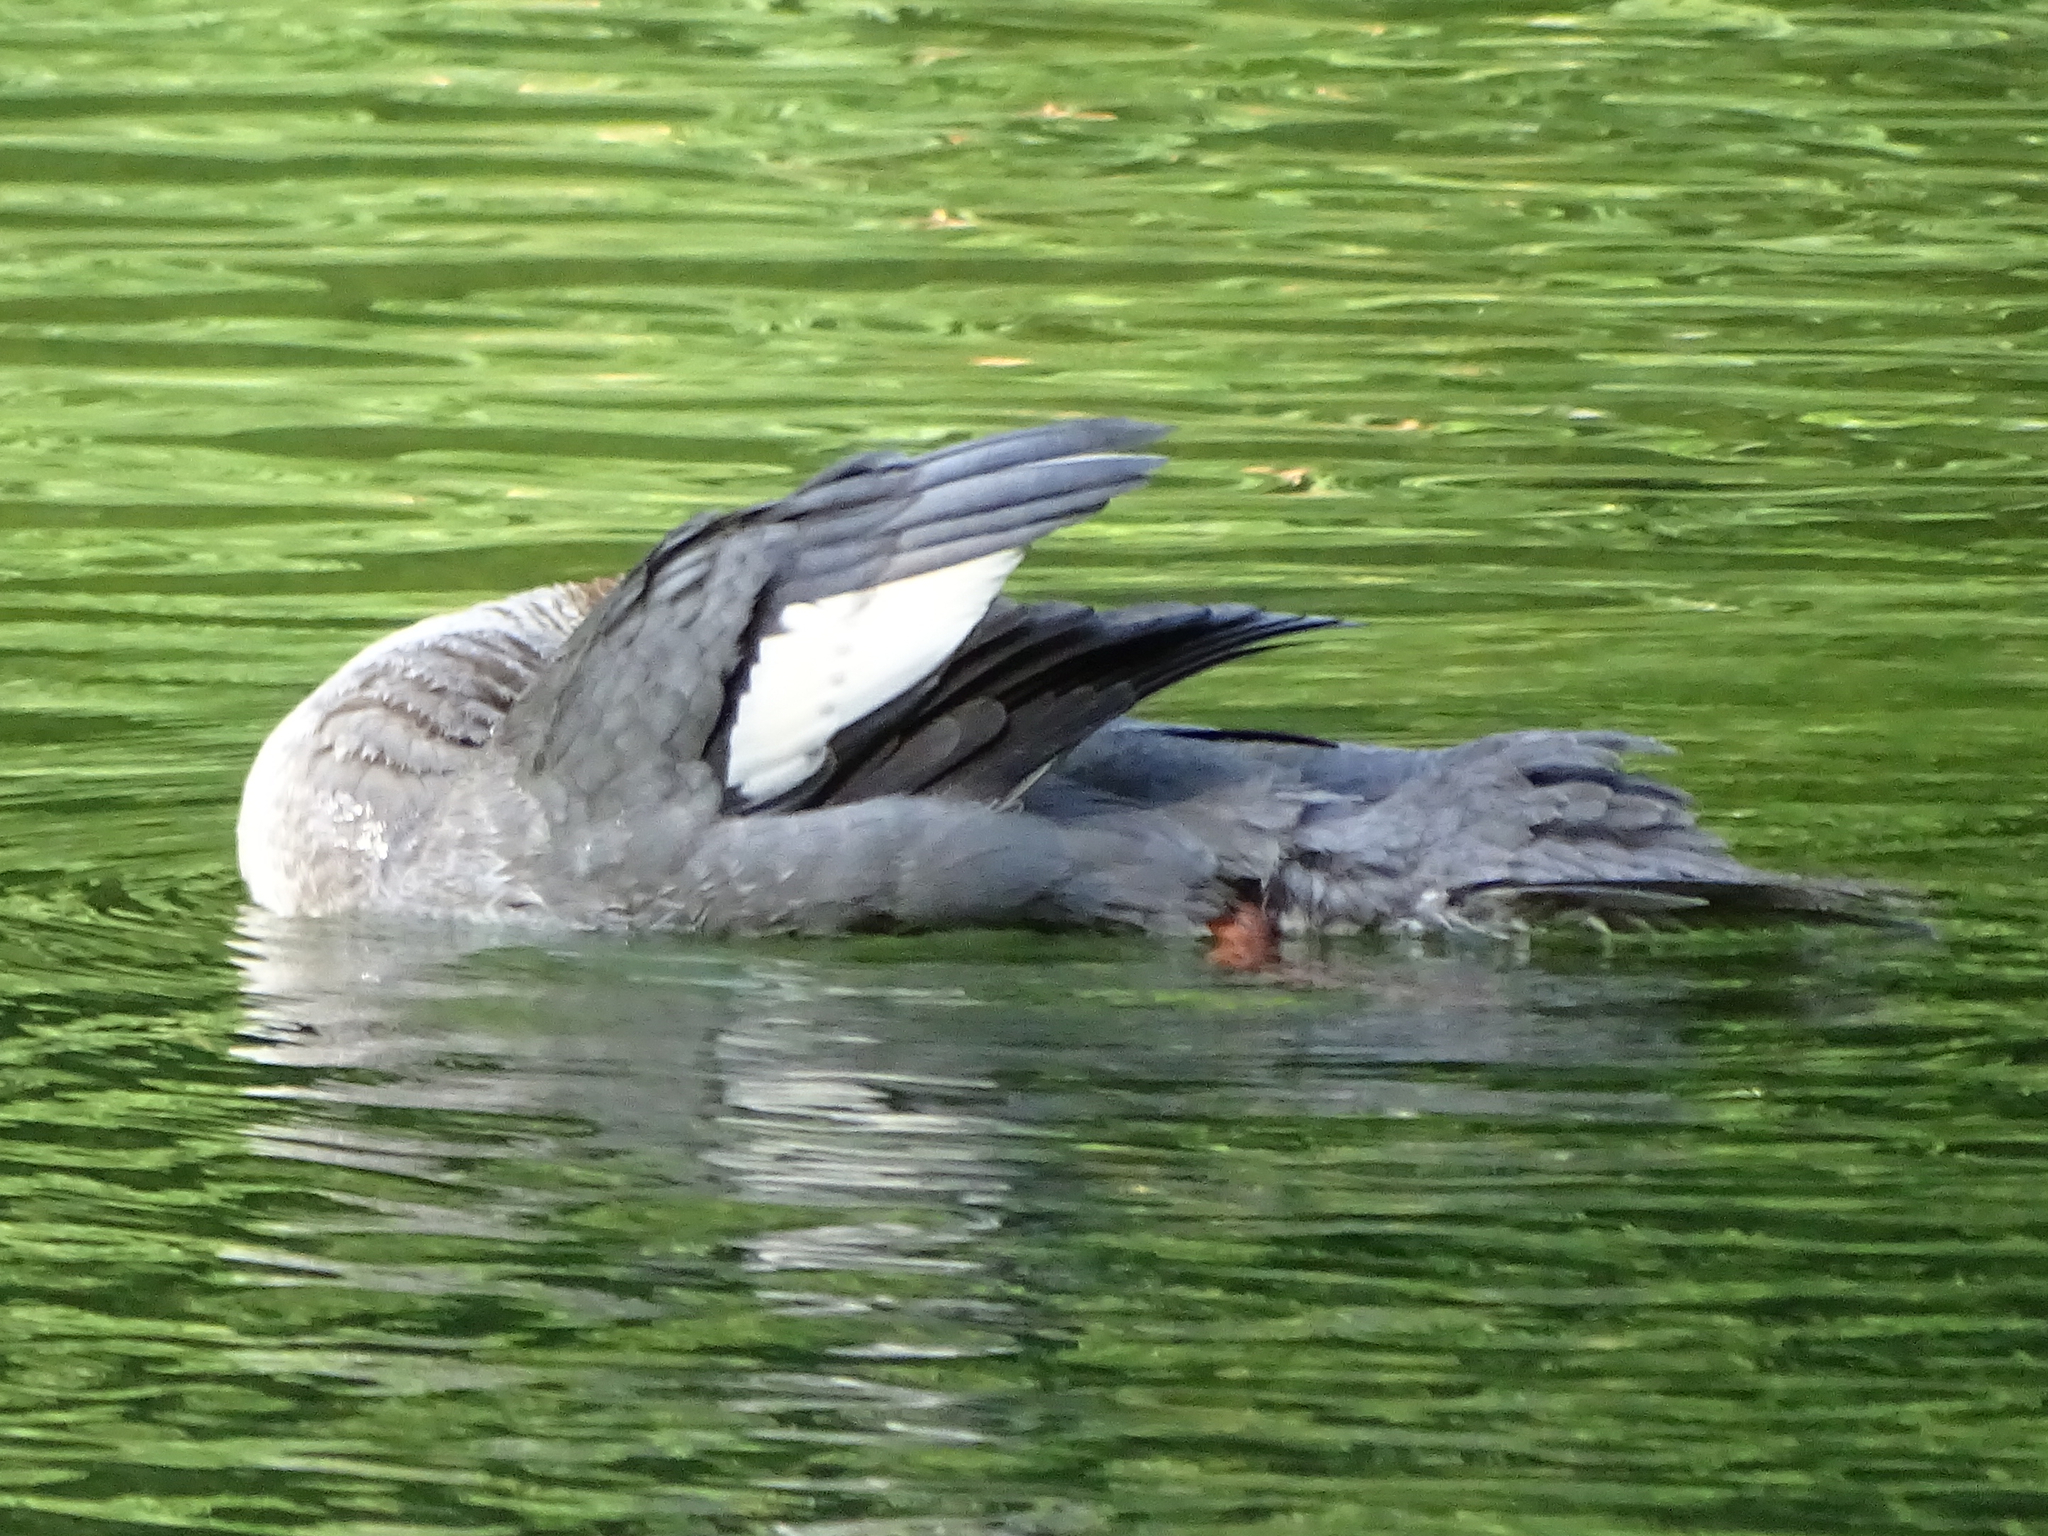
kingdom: Animalia
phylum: Chordata
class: Aves
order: Anseriformes
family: Anatidae
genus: Mergus
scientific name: Mergus merganser
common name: Common merganser
